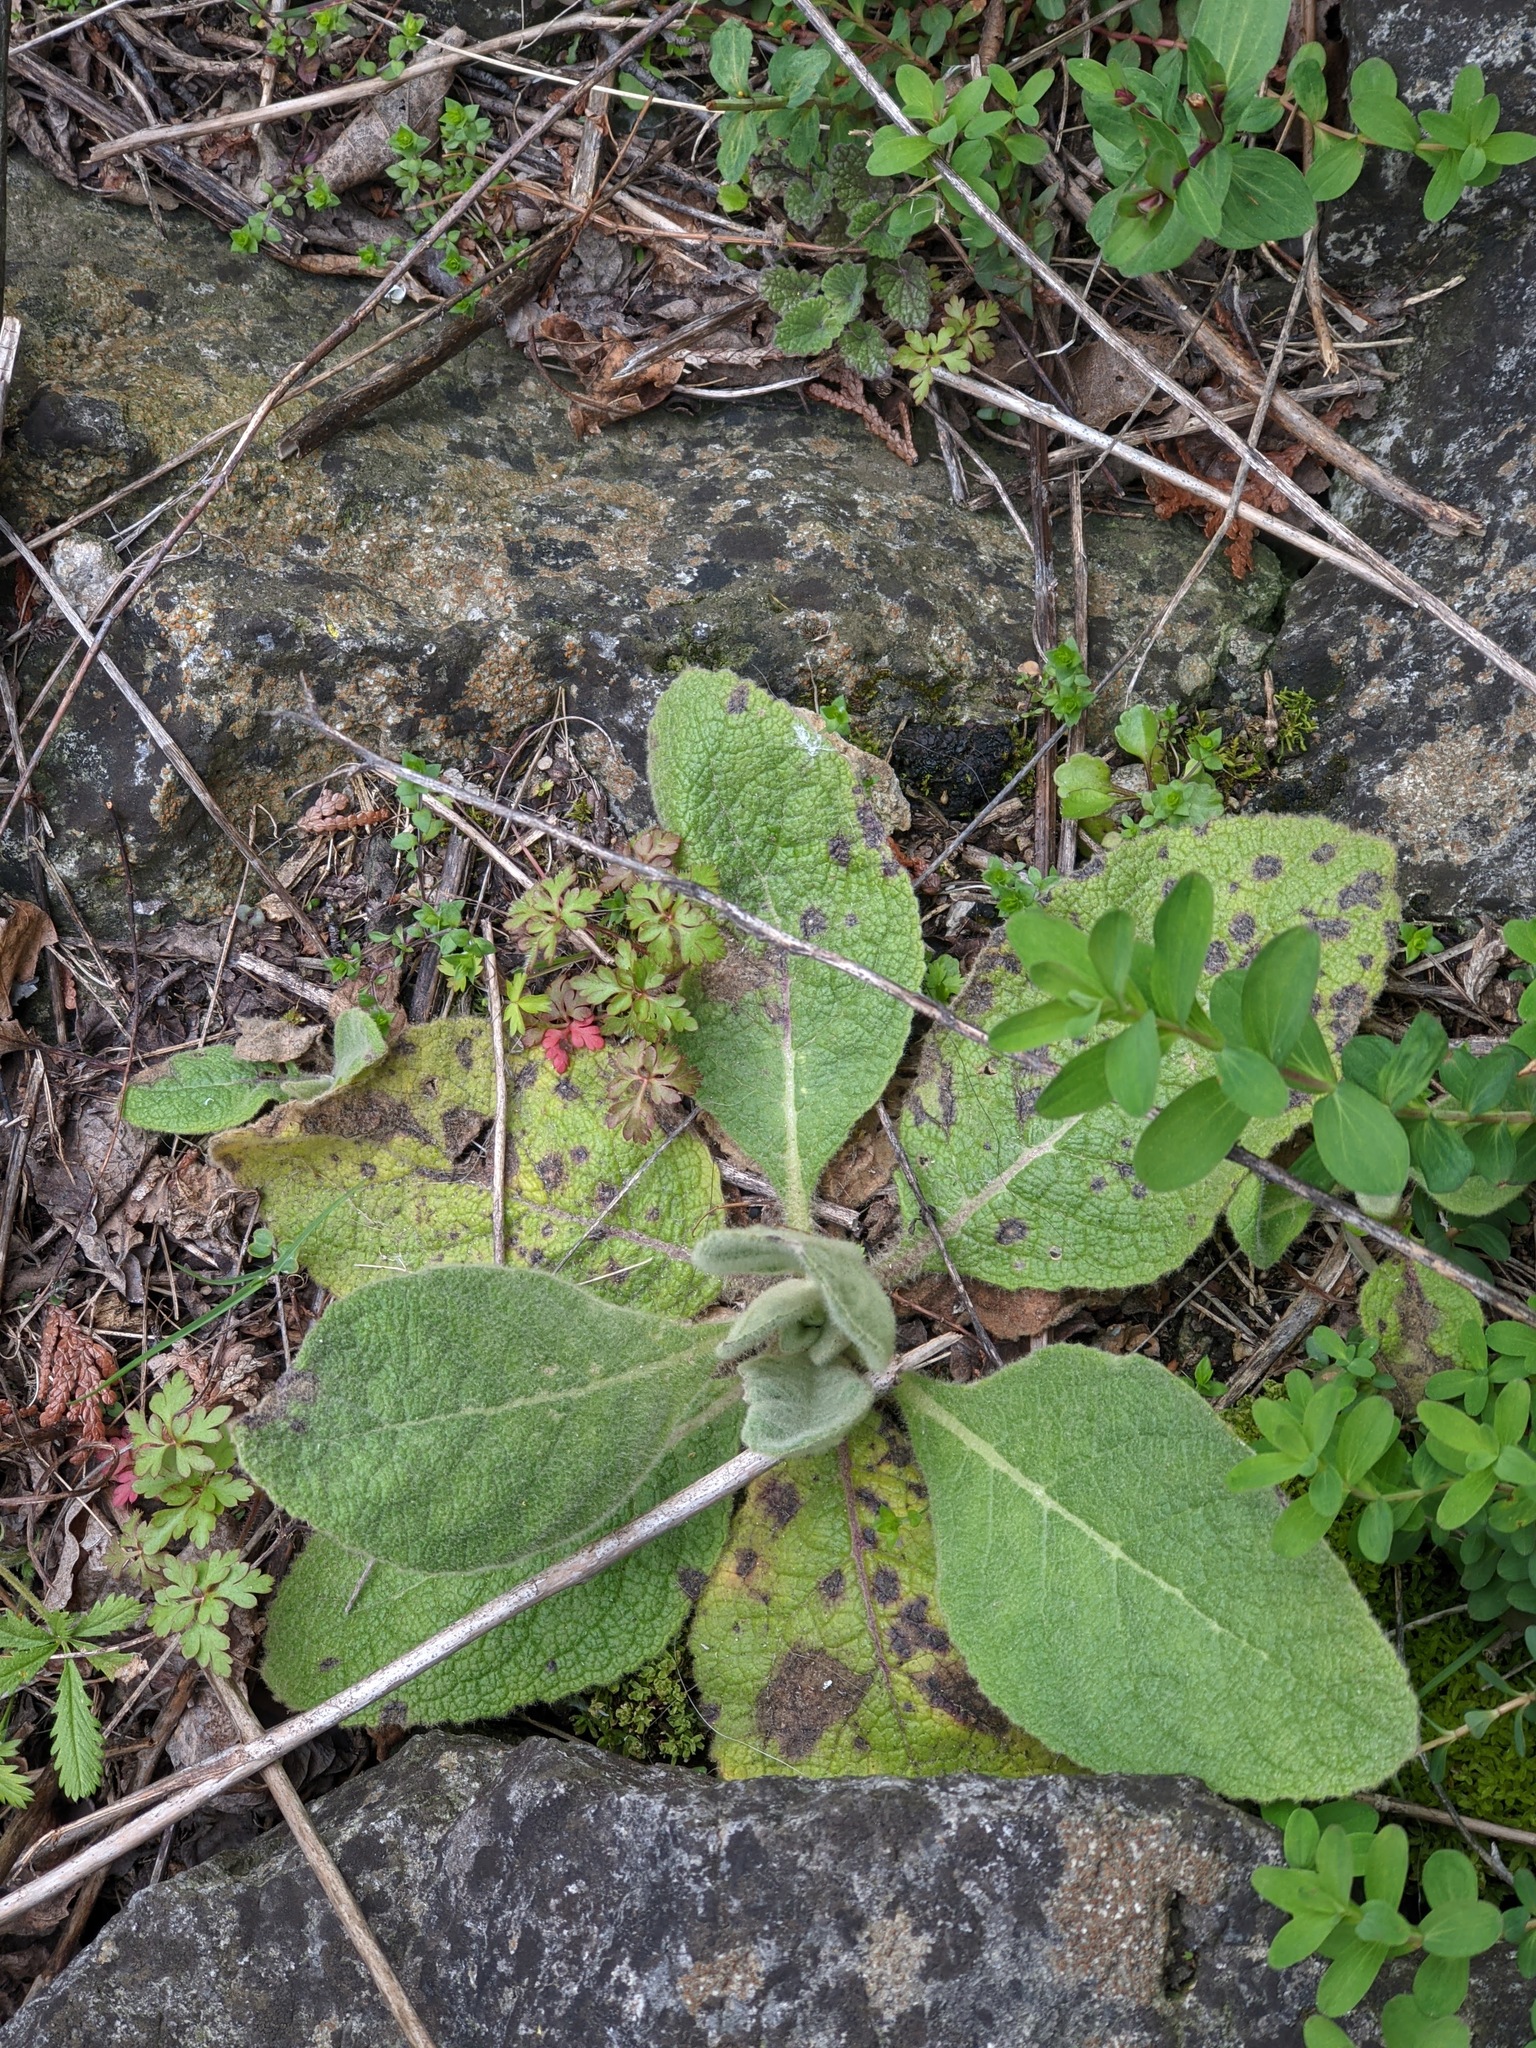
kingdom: Plantae
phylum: Tracheophyta
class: Magnoliopsida
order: Lamiales
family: Scrophulariaceae
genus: Verbascum
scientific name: Verbascum thapsus
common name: Common mullein
